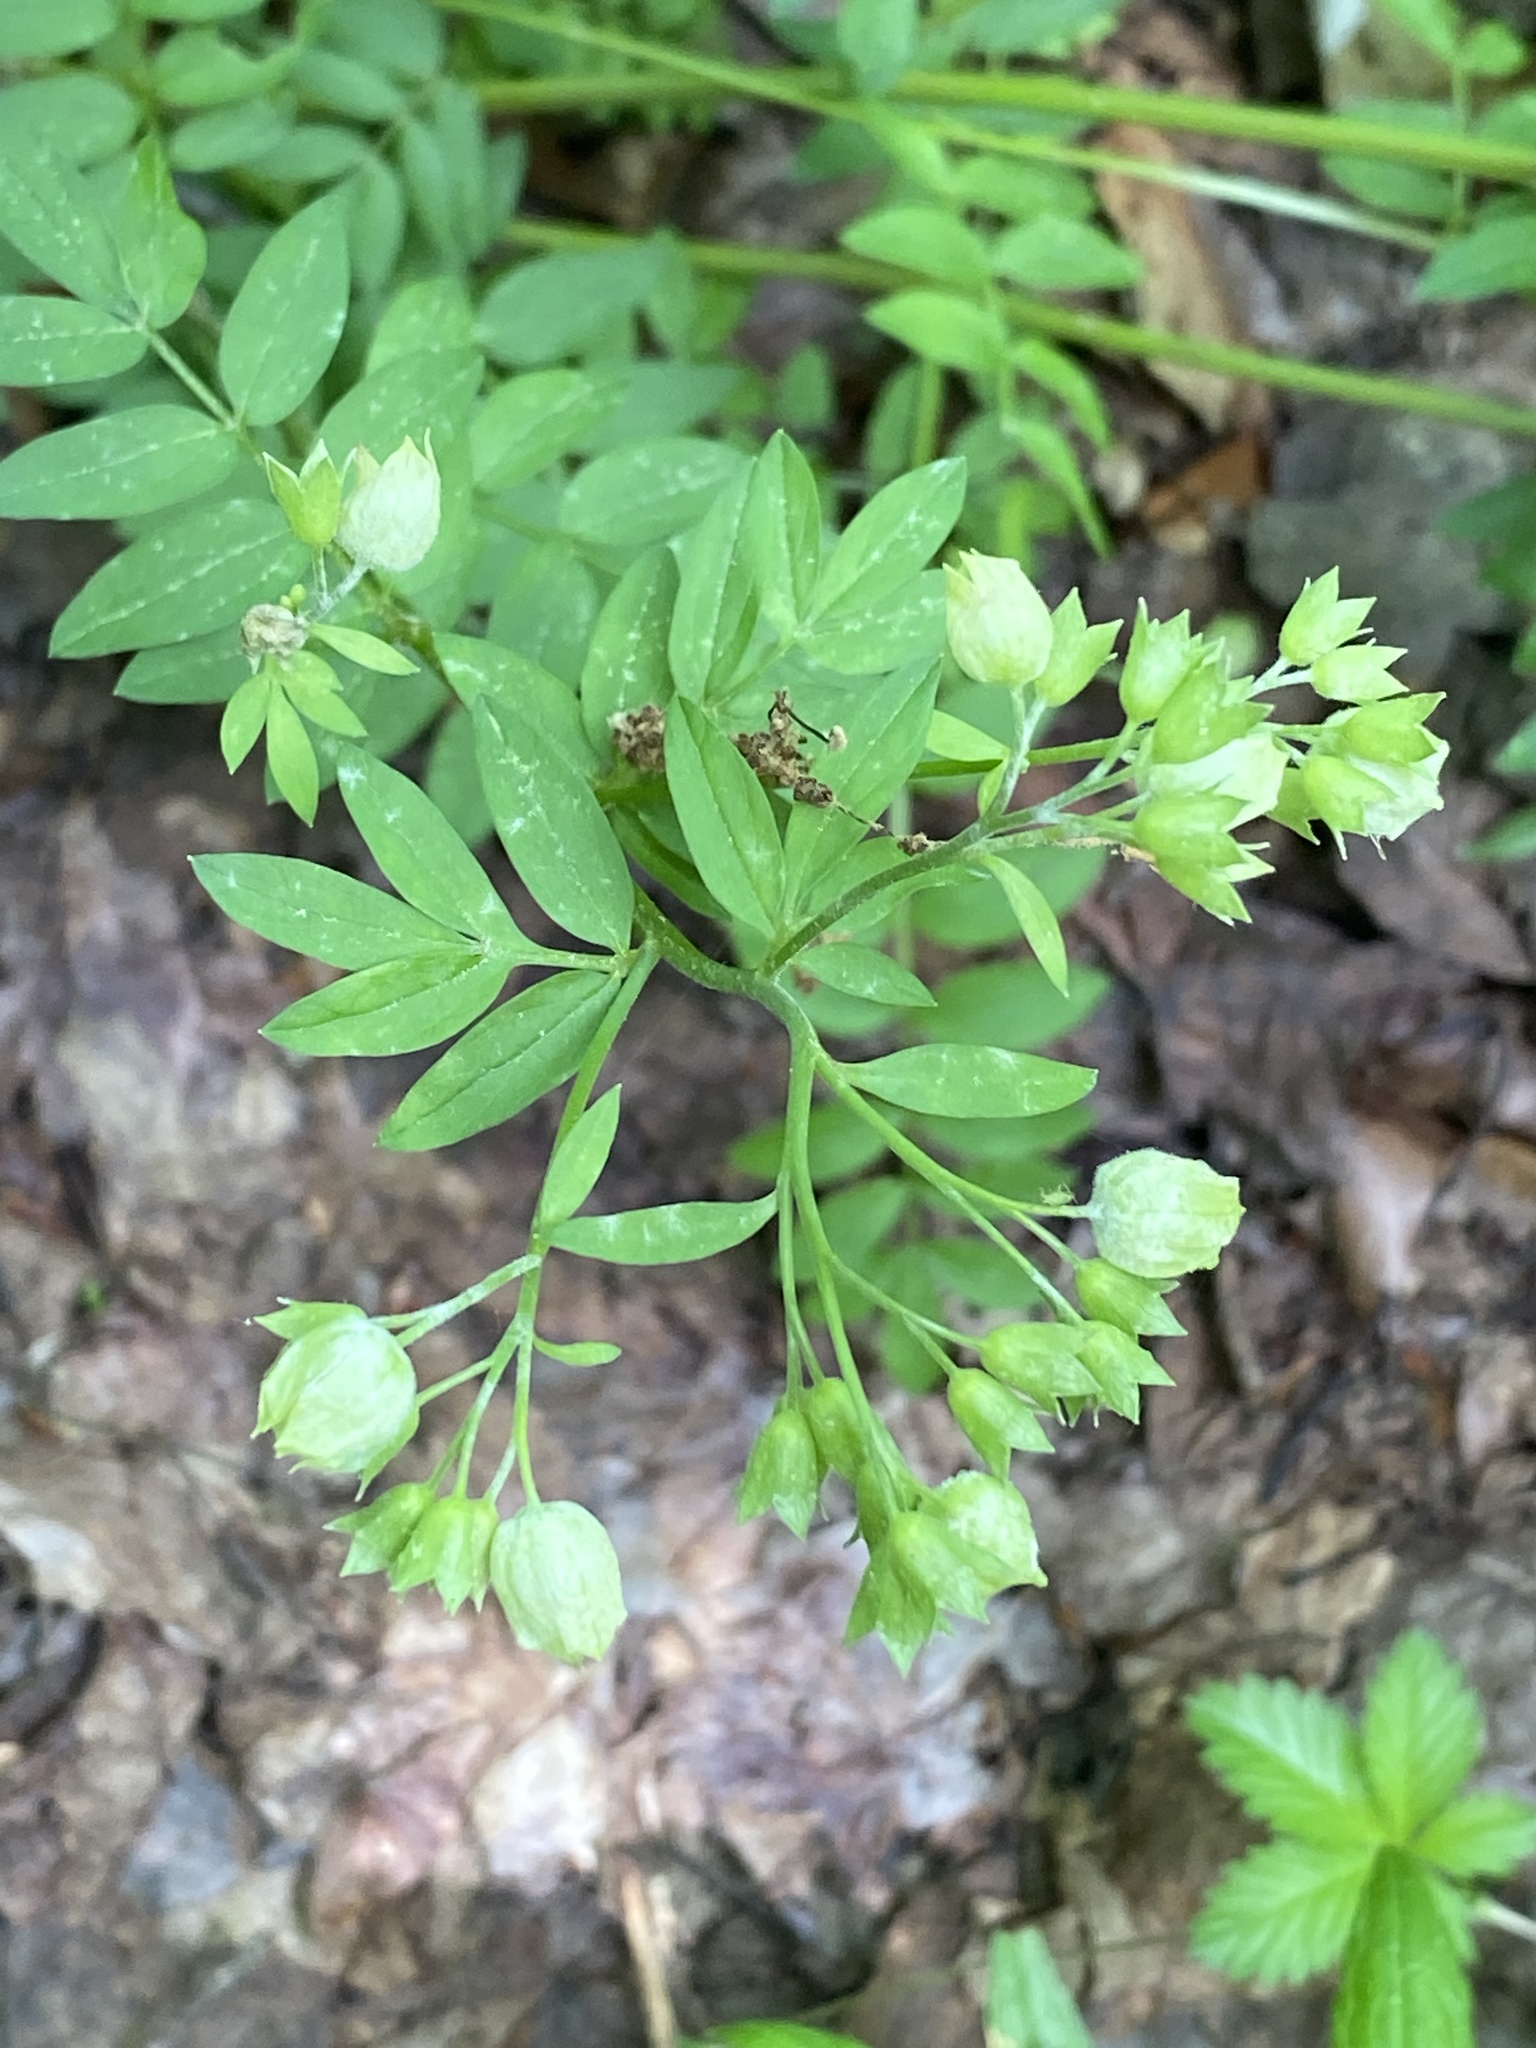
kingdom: Plantae
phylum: Tracheophyta
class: Magnoliopsida
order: Ericales
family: Polemoniaceae
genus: Polemonium
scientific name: Polemonium reptans
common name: Creeping jacob's-ladder
